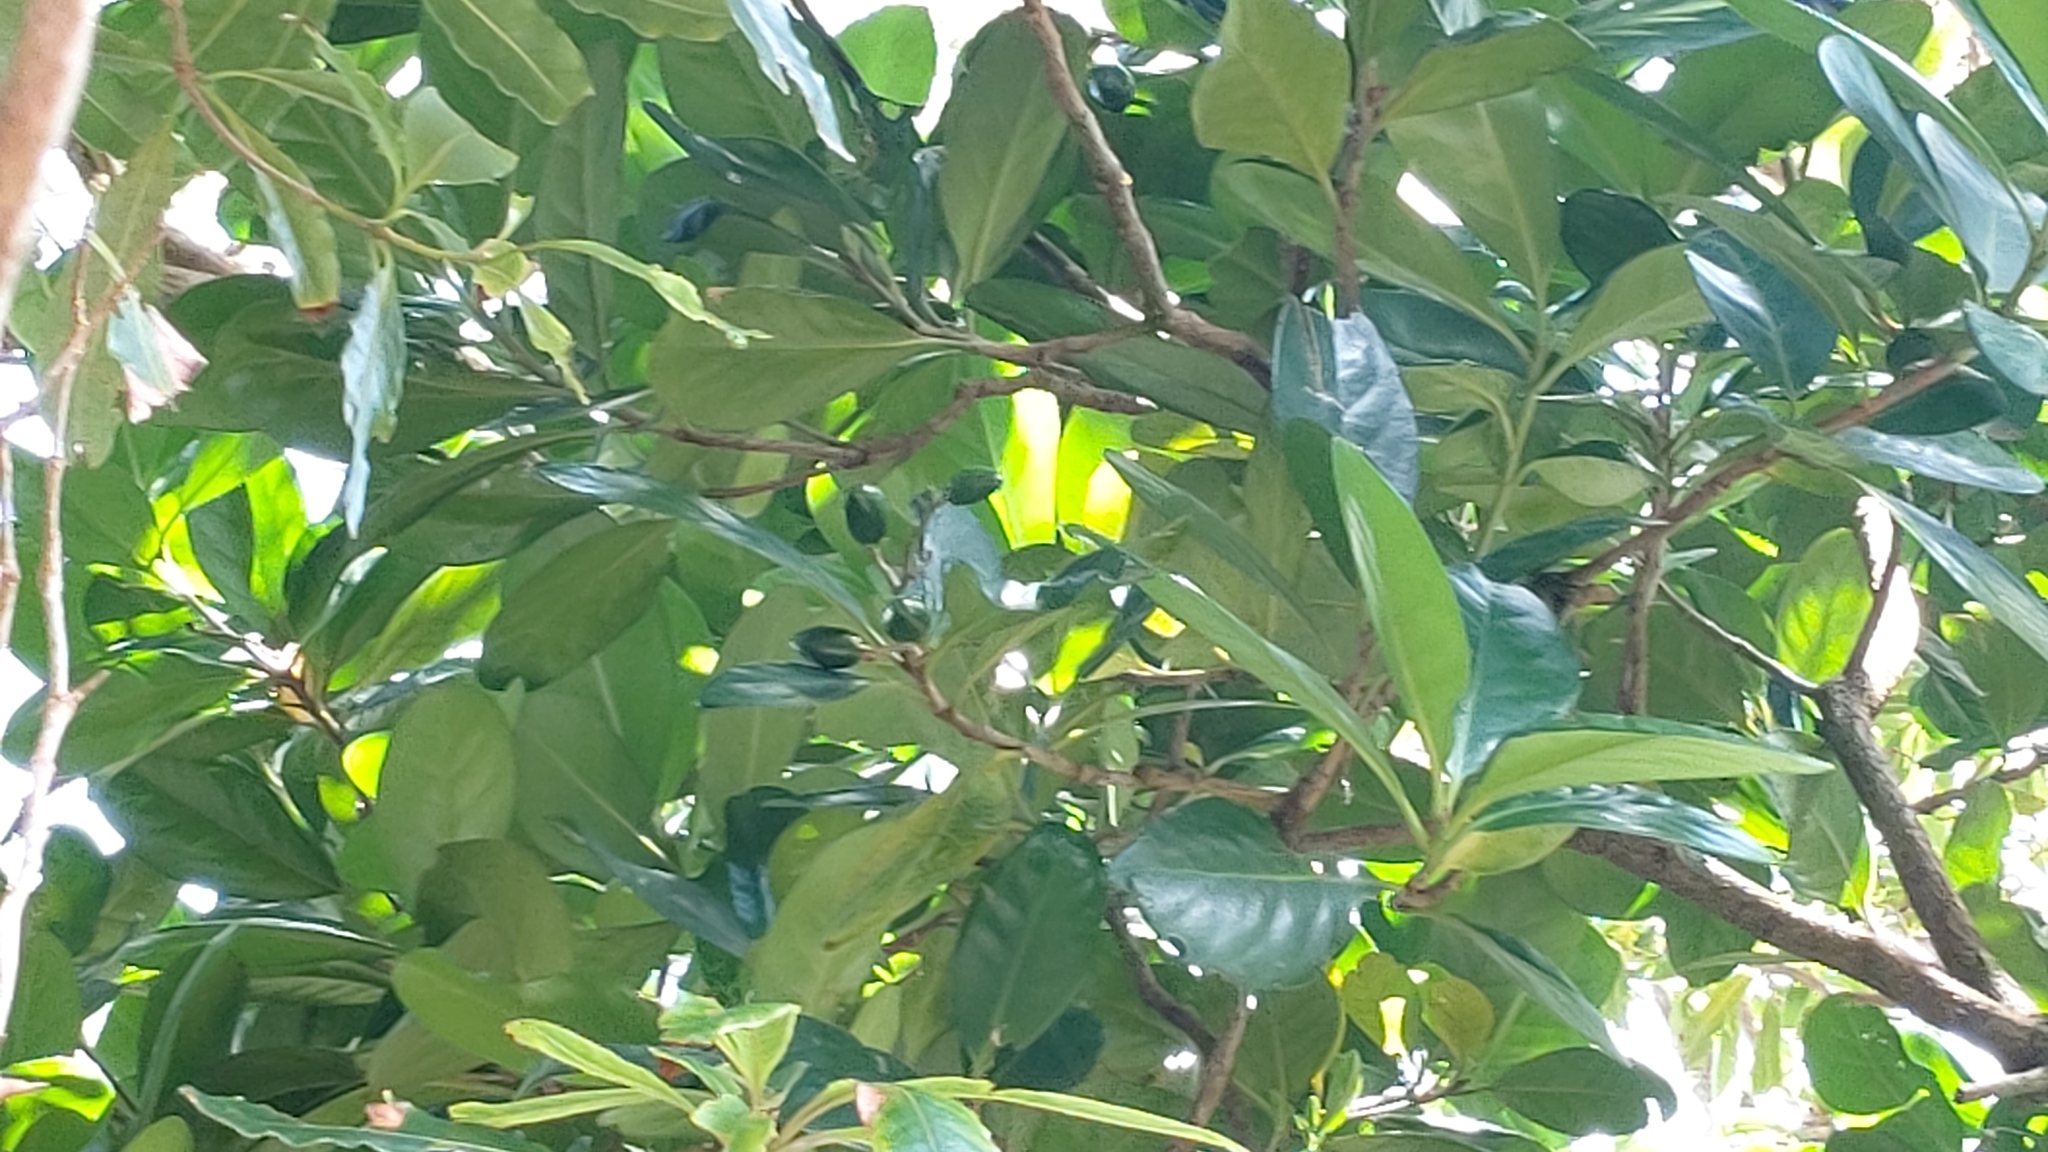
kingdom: Plantae
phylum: Tracheophyta
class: Magnoliopsida
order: Cucurbitales
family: Corynocarpaceae
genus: Corynocarpus
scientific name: Corynocarpus laevigatus
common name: New zealand laurel
